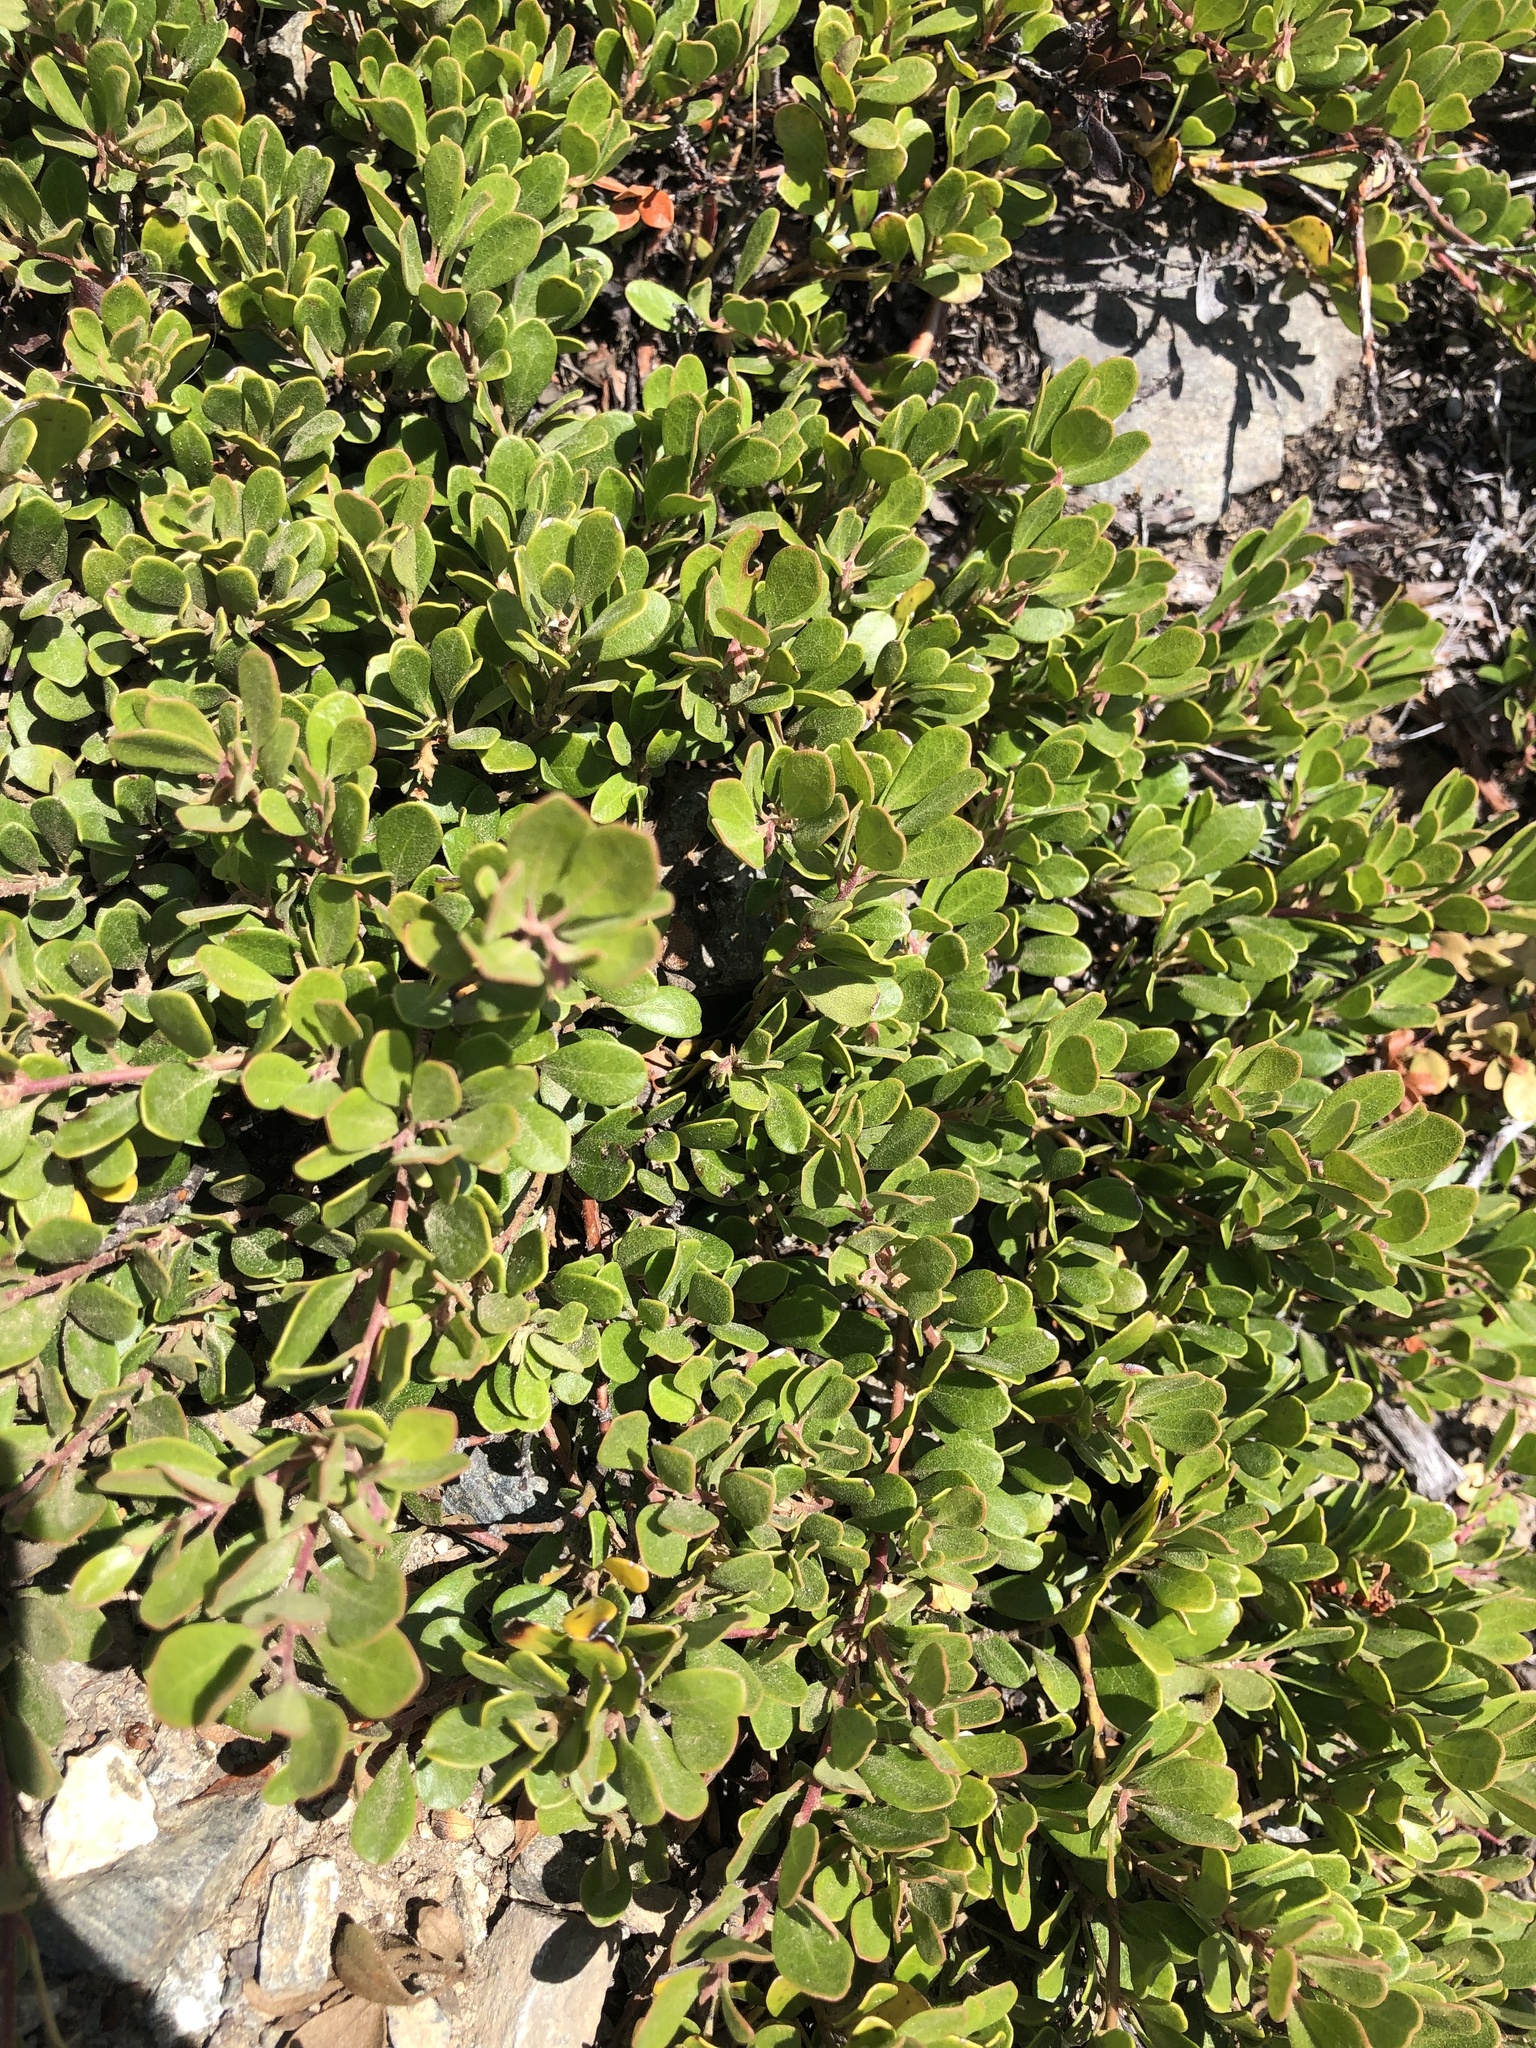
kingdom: Plantae
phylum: Tracheophyta
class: Magnoliopsida
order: Ericales
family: Ericaceae
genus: Arctostaphylos
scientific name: Arctostaphylos uva-ursi
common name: Bearberry
